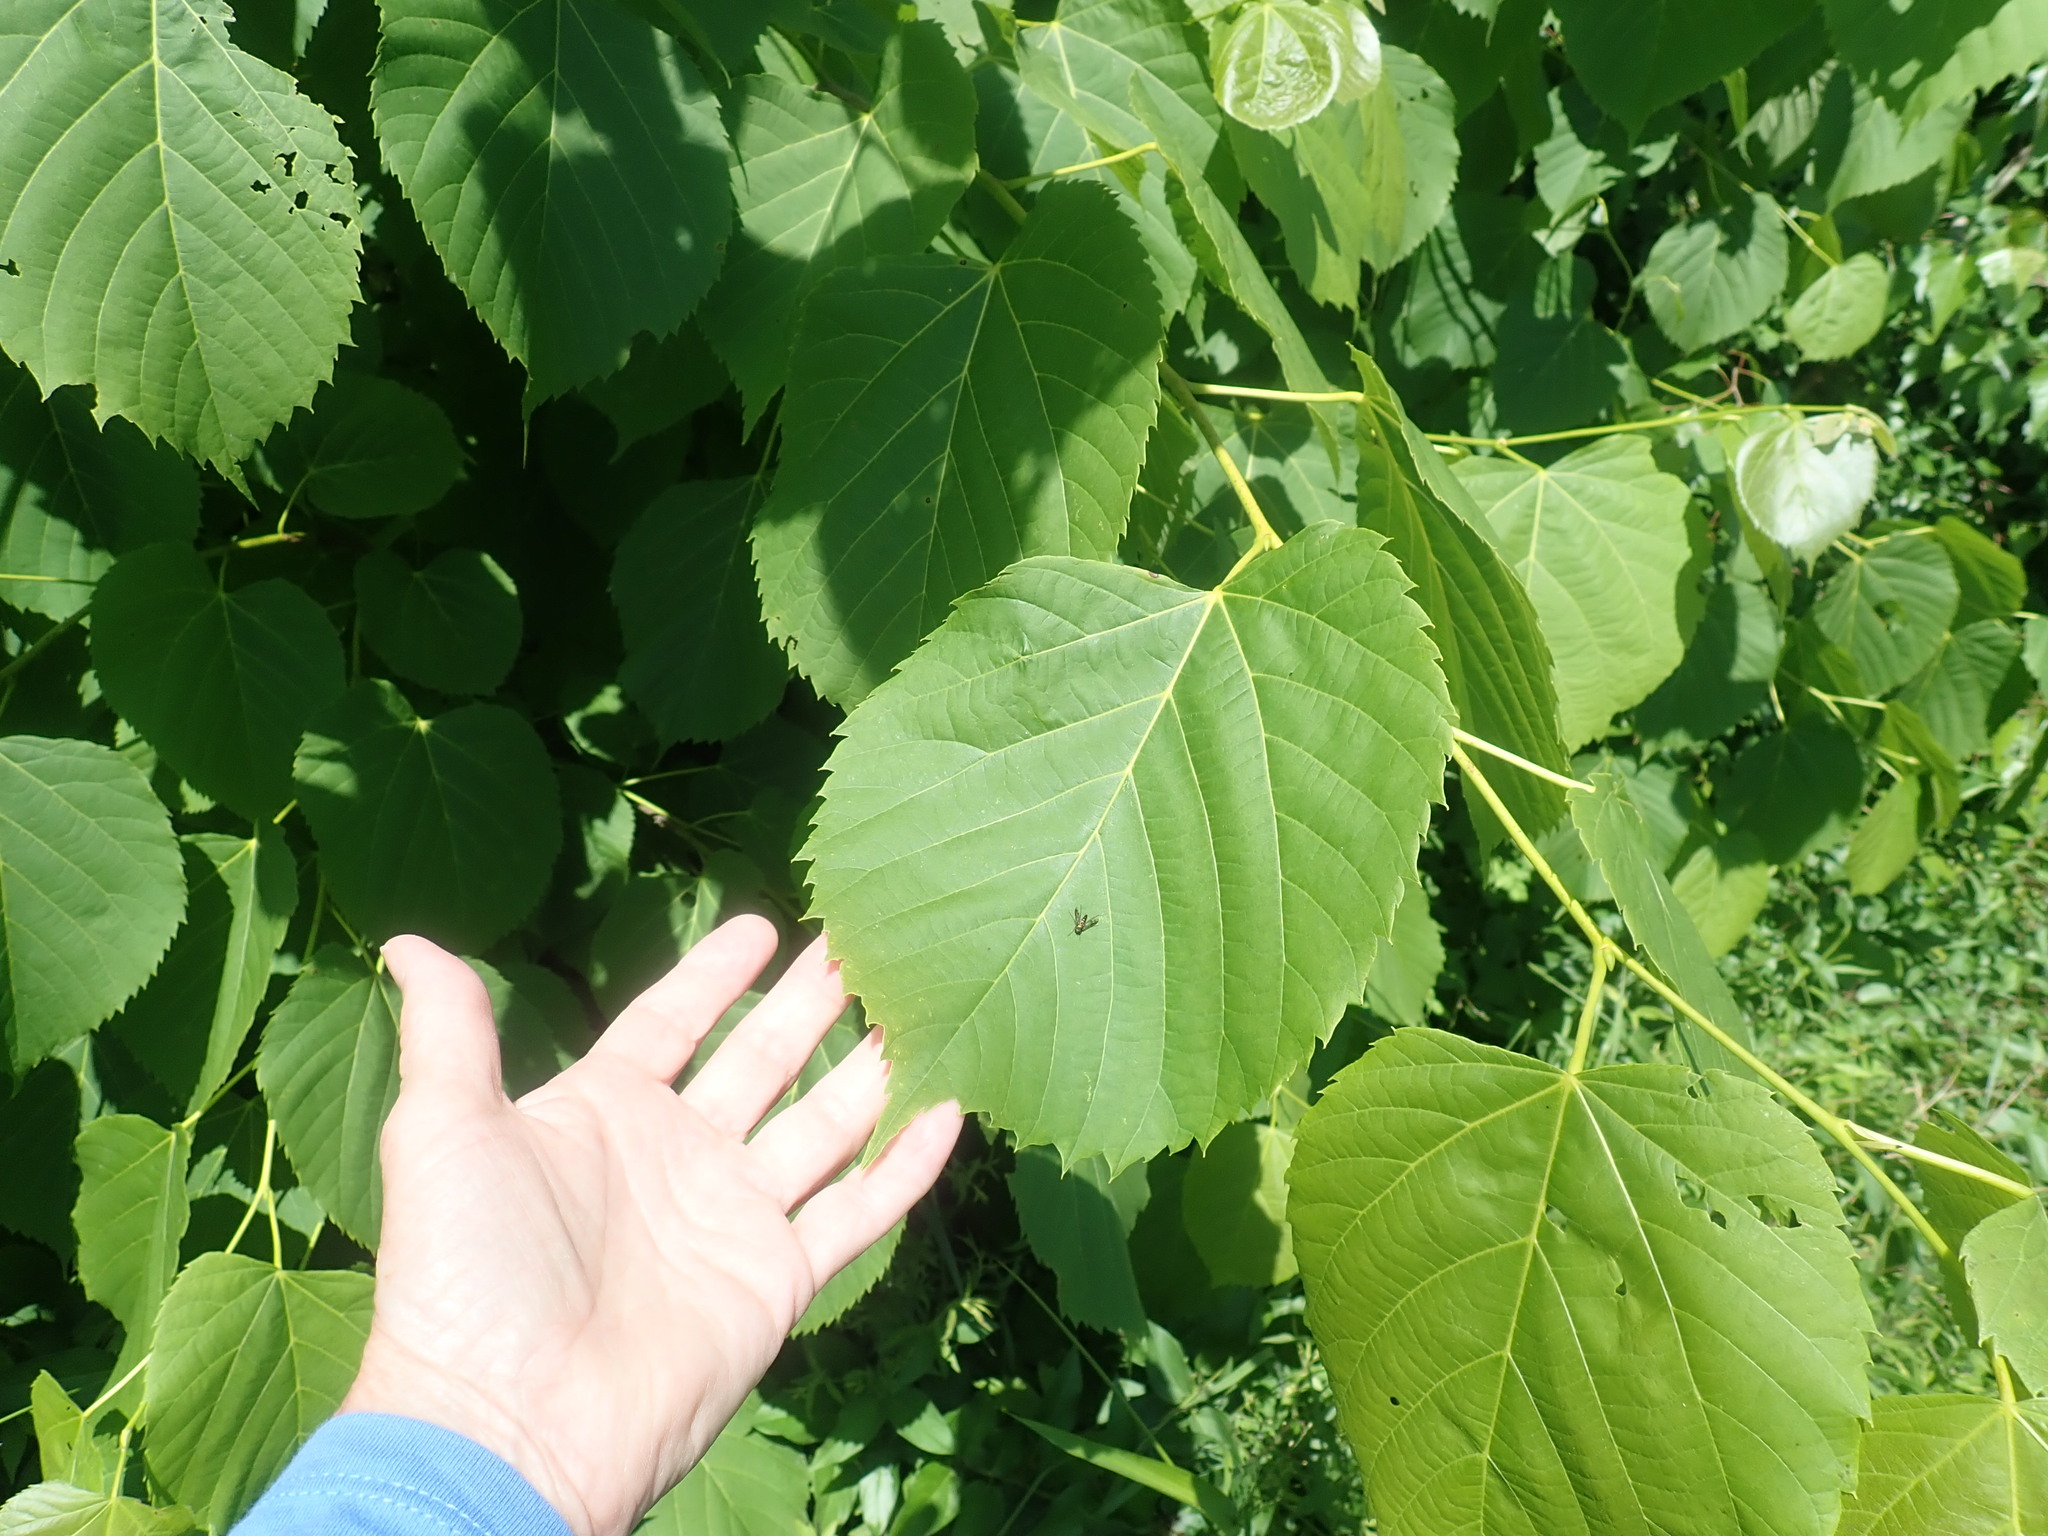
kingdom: Plantae
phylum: Tracheophyta
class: Magnoliopsida
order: Malvales
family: Malvaceae
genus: Tilia
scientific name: Tilia americana
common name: Basswood
